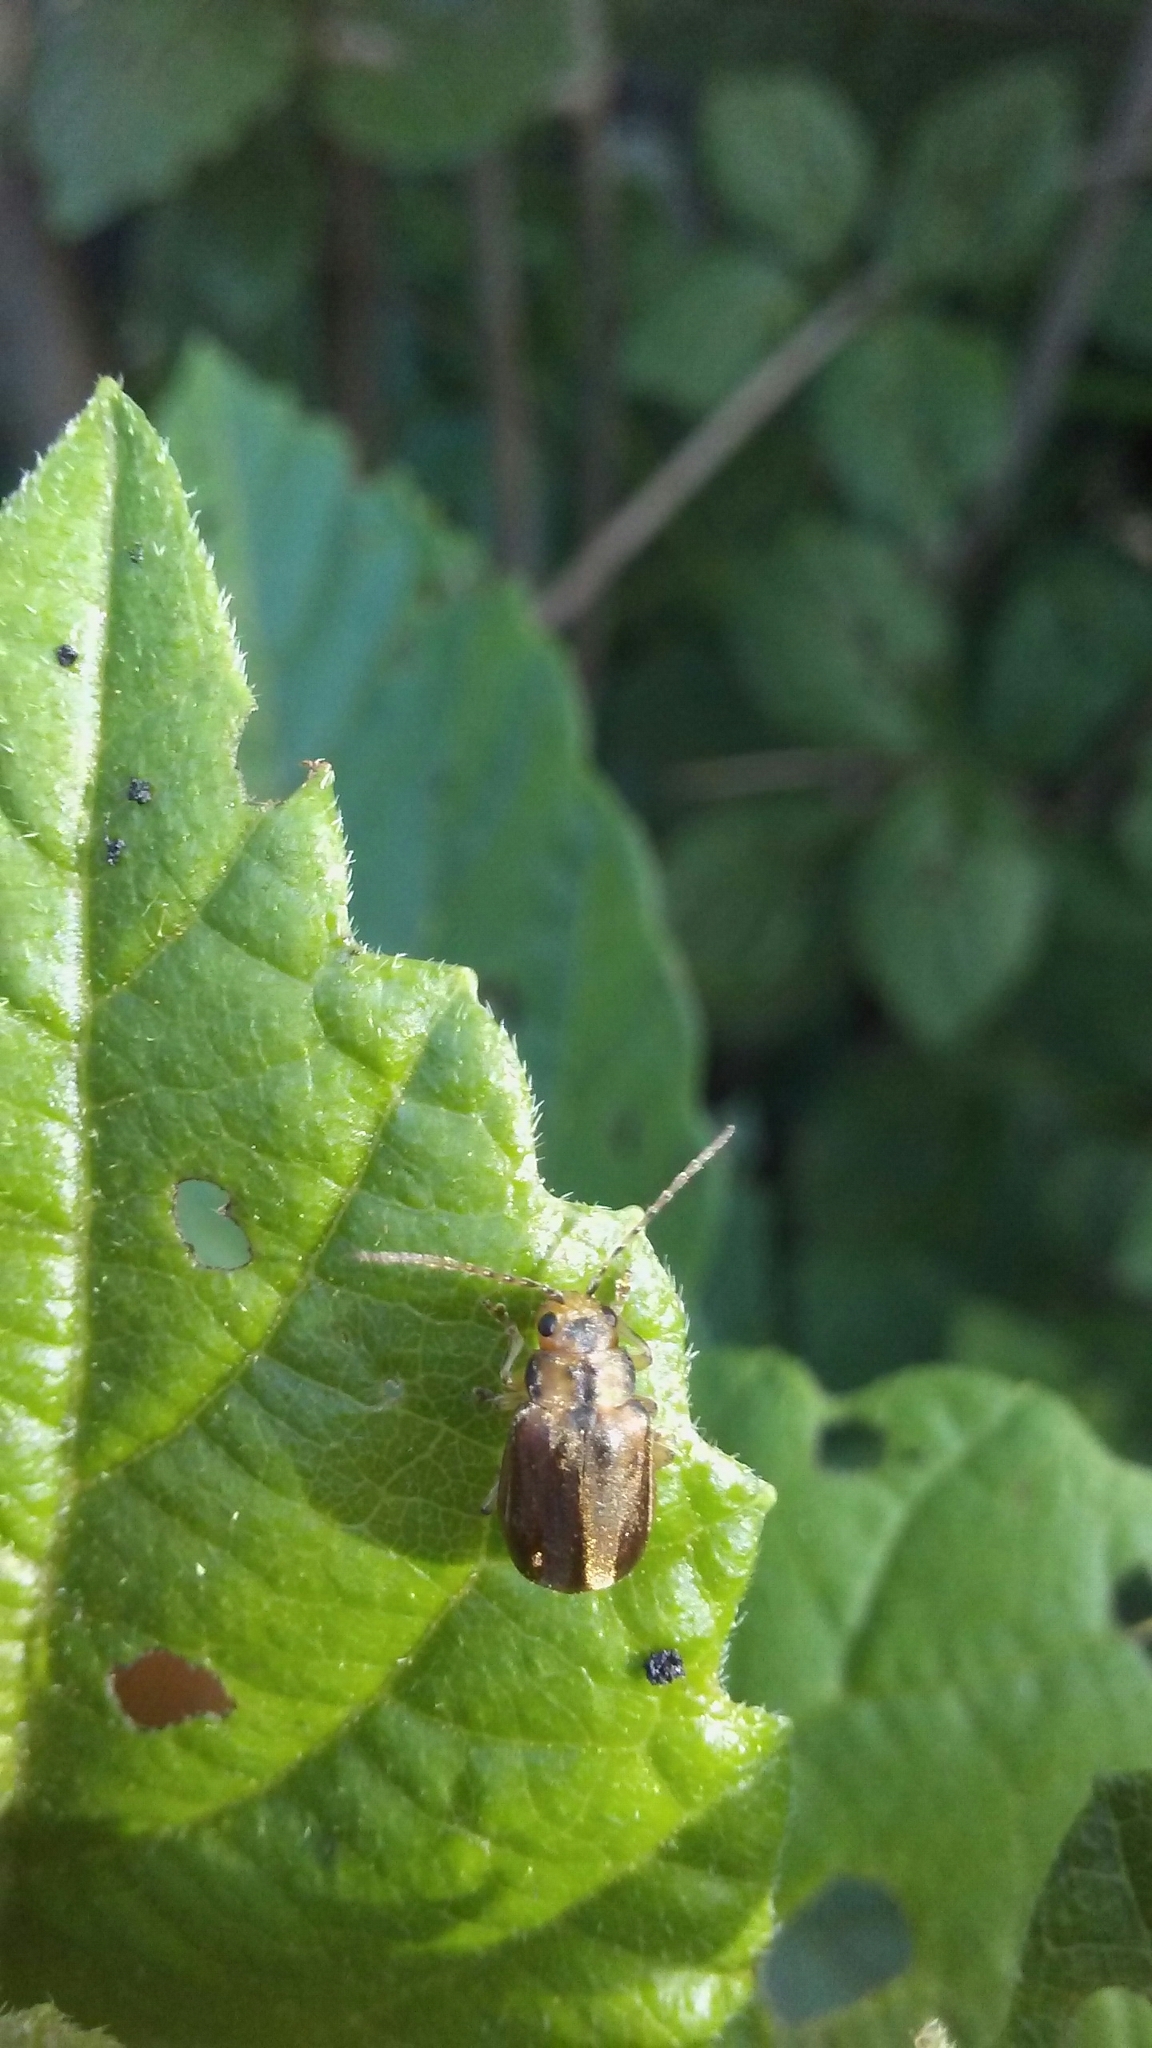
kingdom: Animalia
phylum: Arthropoda
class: Insecta
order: Coleoptera
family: Chrysomelidae
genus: Pyrrhalta
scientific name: Pyrrhalta viburni
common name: Guelder-rose leaf beetle
